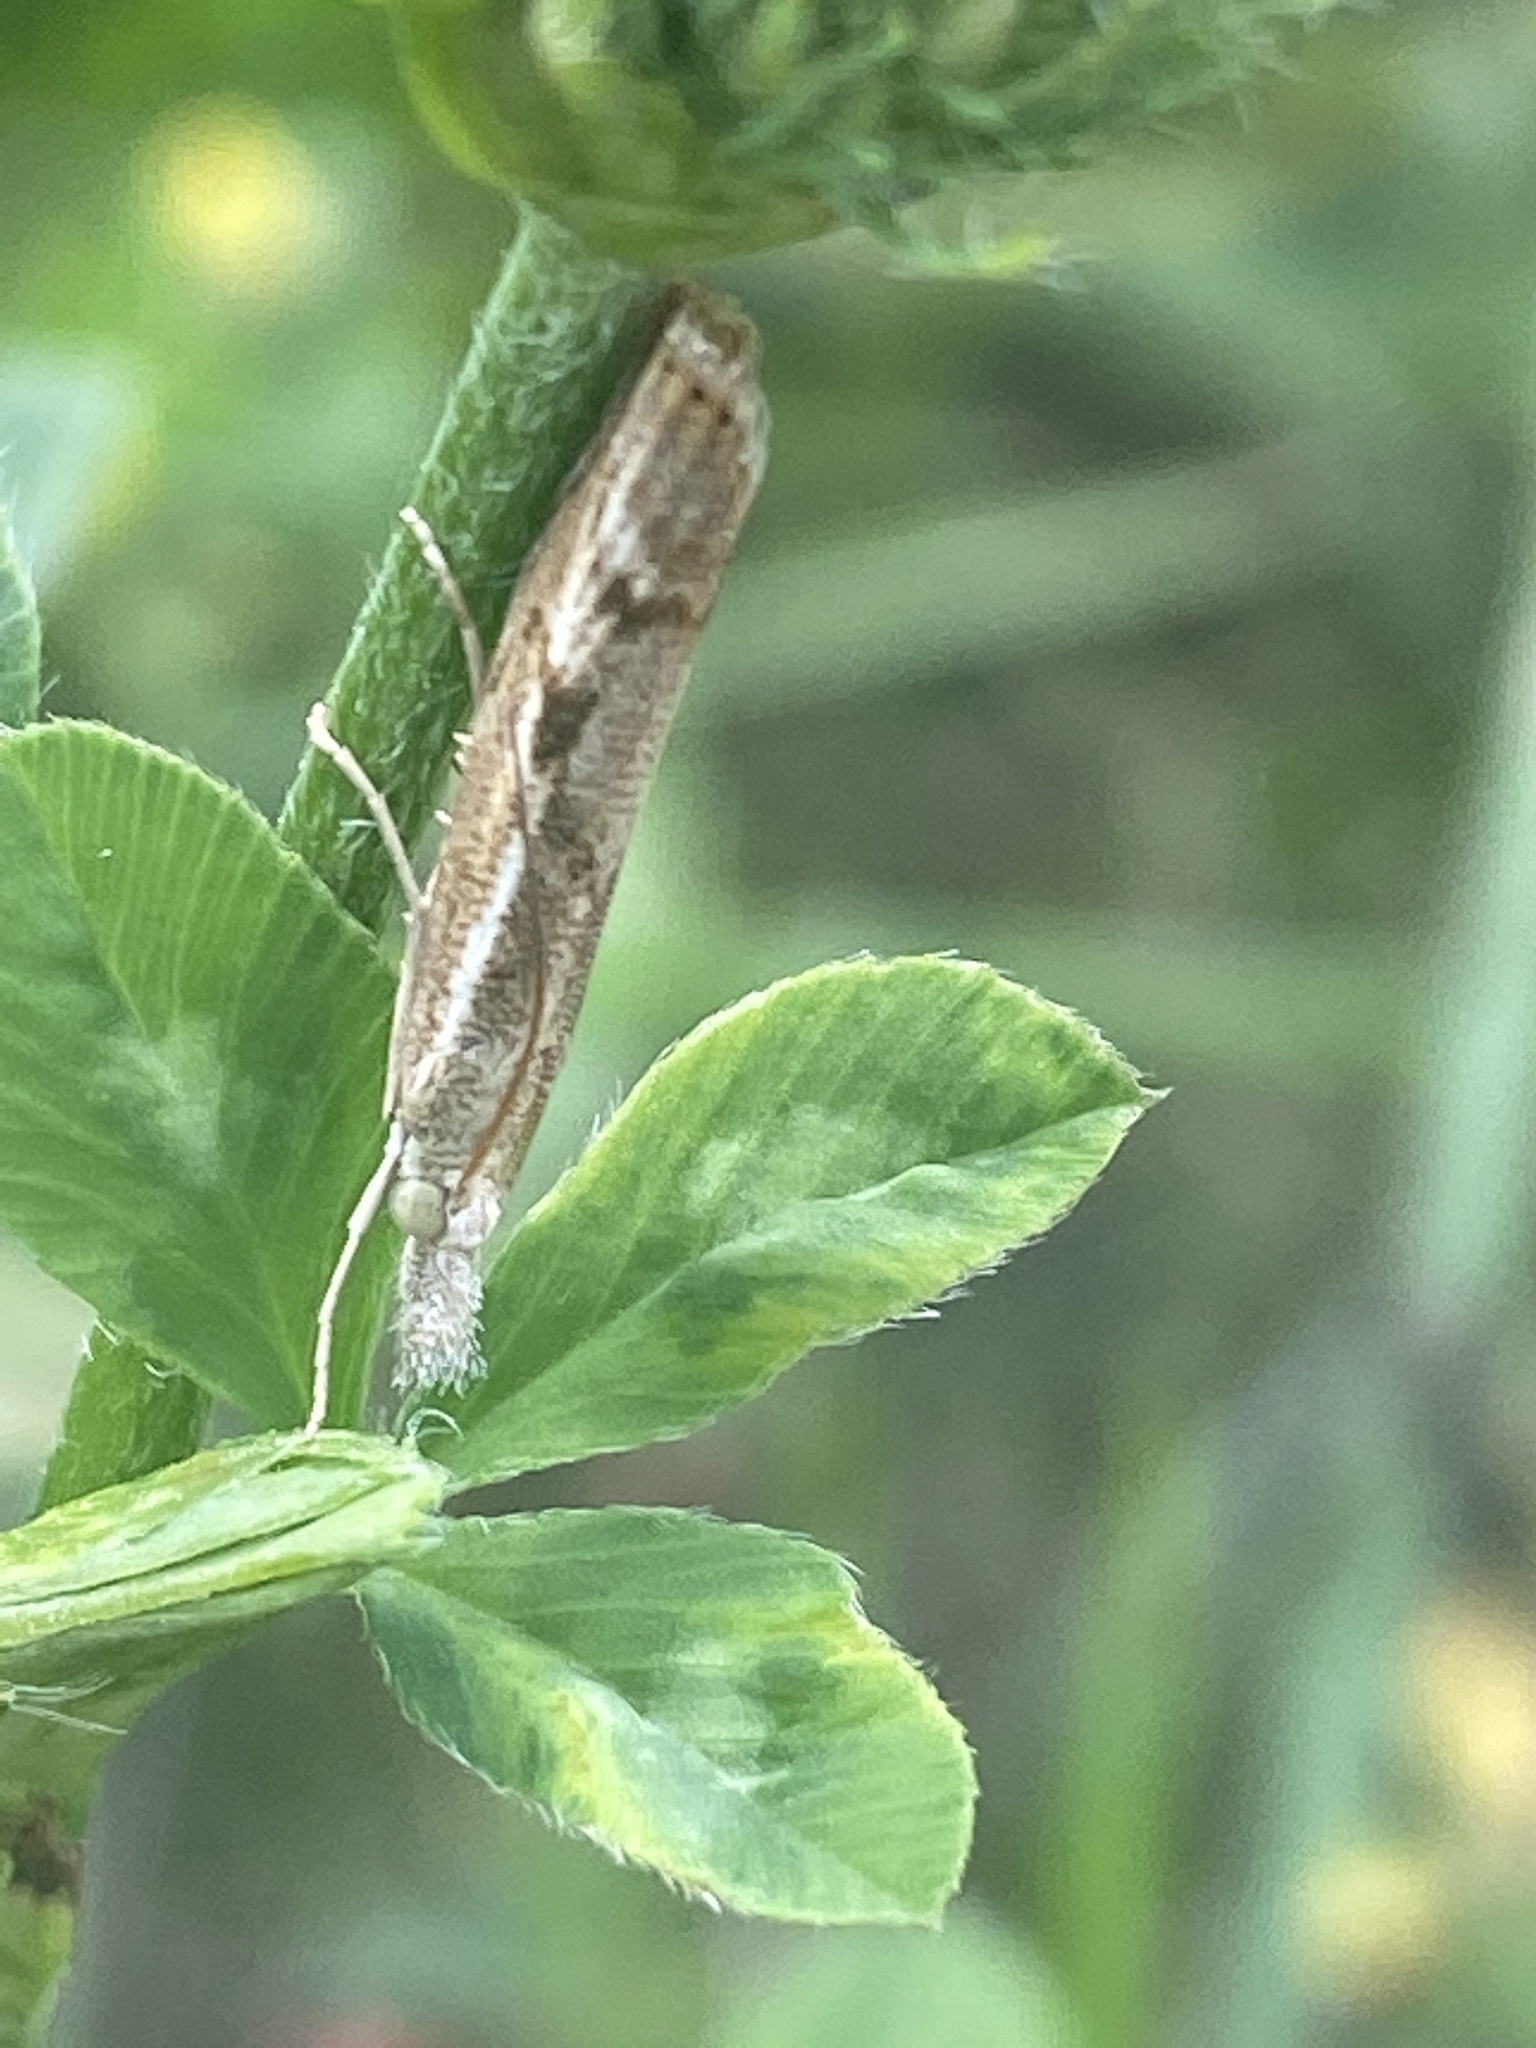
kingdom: Animalia
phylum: Arthropoda
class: Insecta
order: Lepidoptera
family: Crambidae
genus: Agriphila
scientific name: Agriphila geniculea
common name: Elbow-stripe grass-veneer
